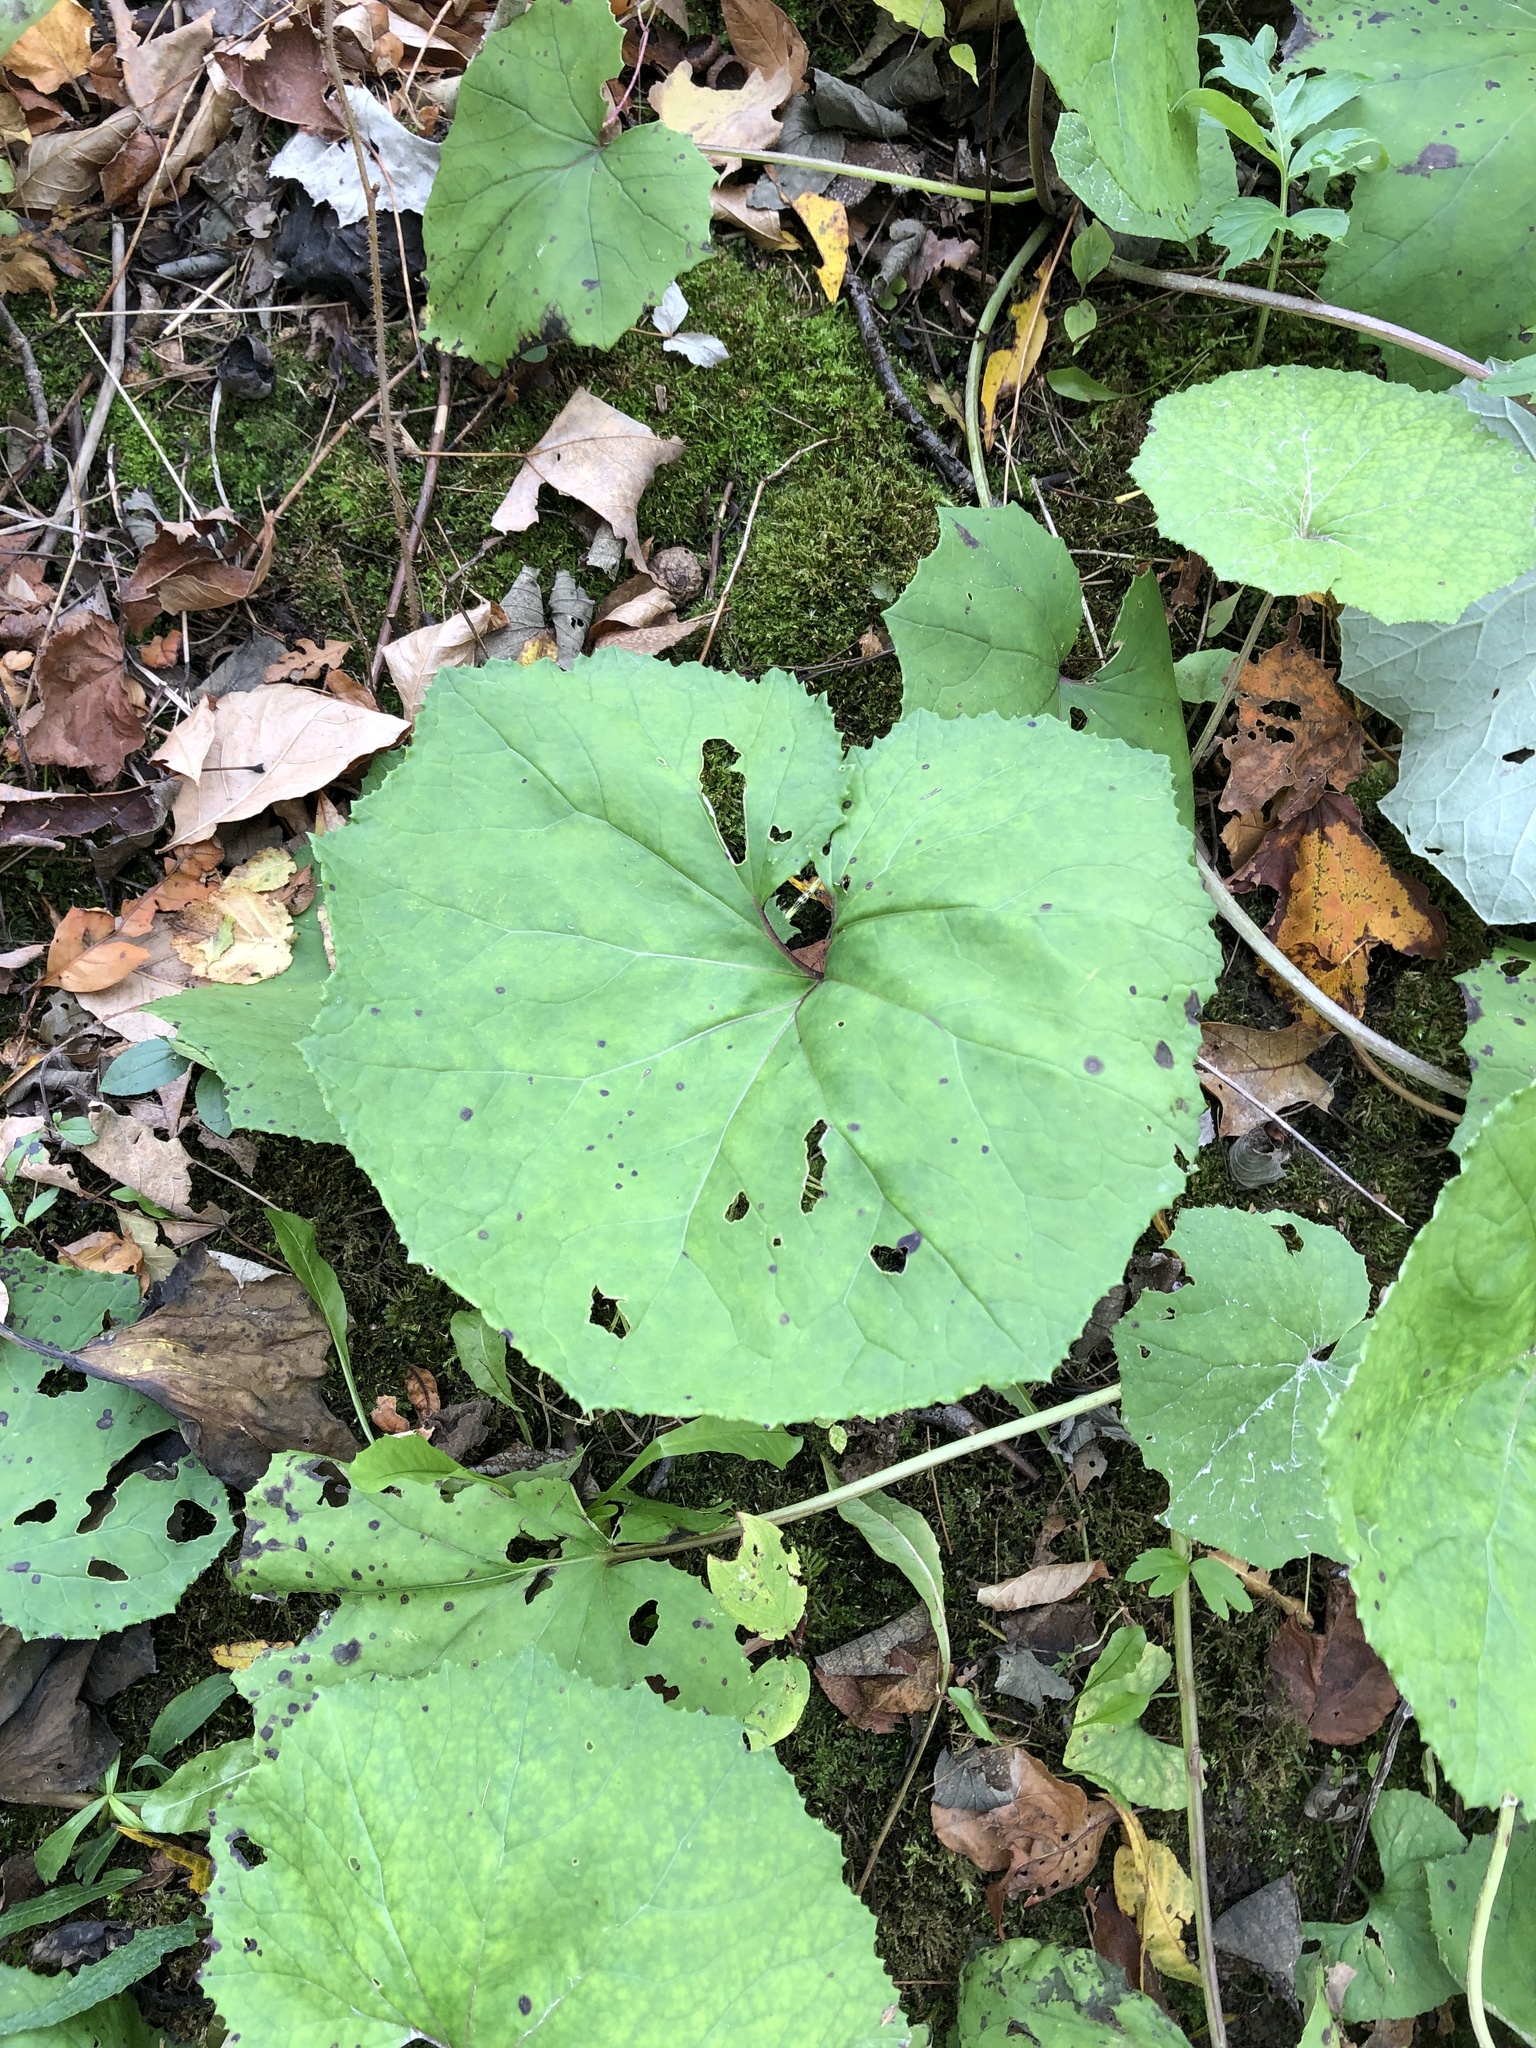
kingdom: Plantae
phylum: Tracheophyta
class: Magnoliopsida
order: Asterales
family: Asteraceae
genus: Tussilago
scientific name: Tussilago farfara
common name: Coltsfoot
